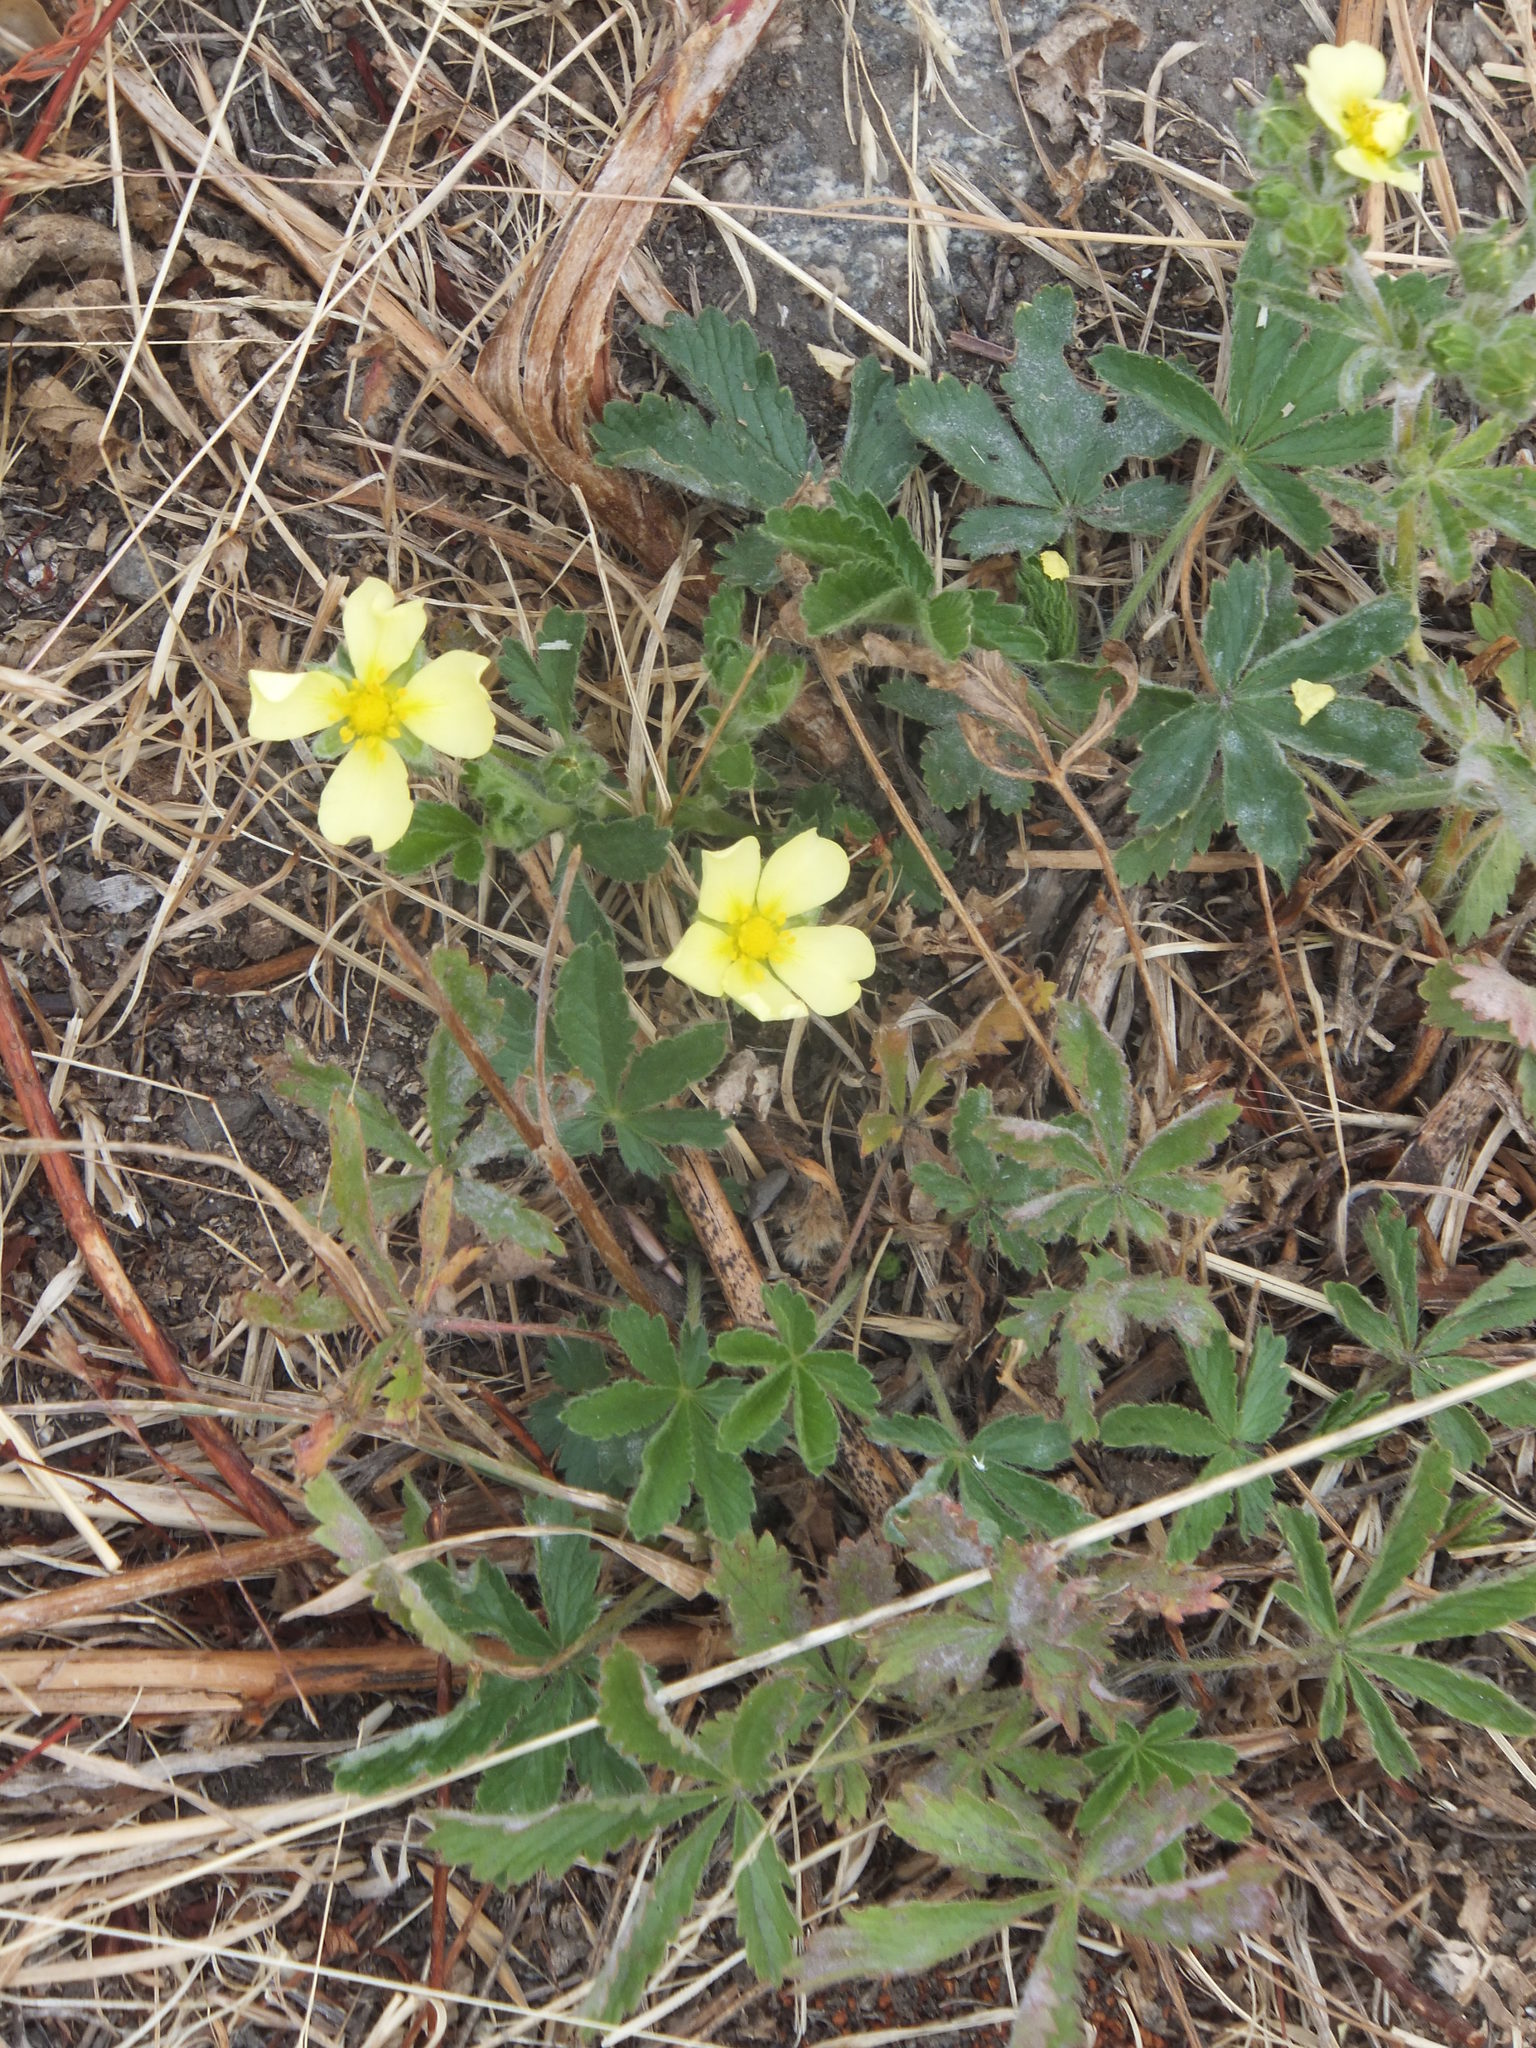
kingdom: Plantae
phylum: Tracheophyta
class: Magnoliopsida
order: Rosales
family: Rosaceae
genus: Potentilla
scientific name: Potentilla recta
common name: Sulphur cinquefoil
